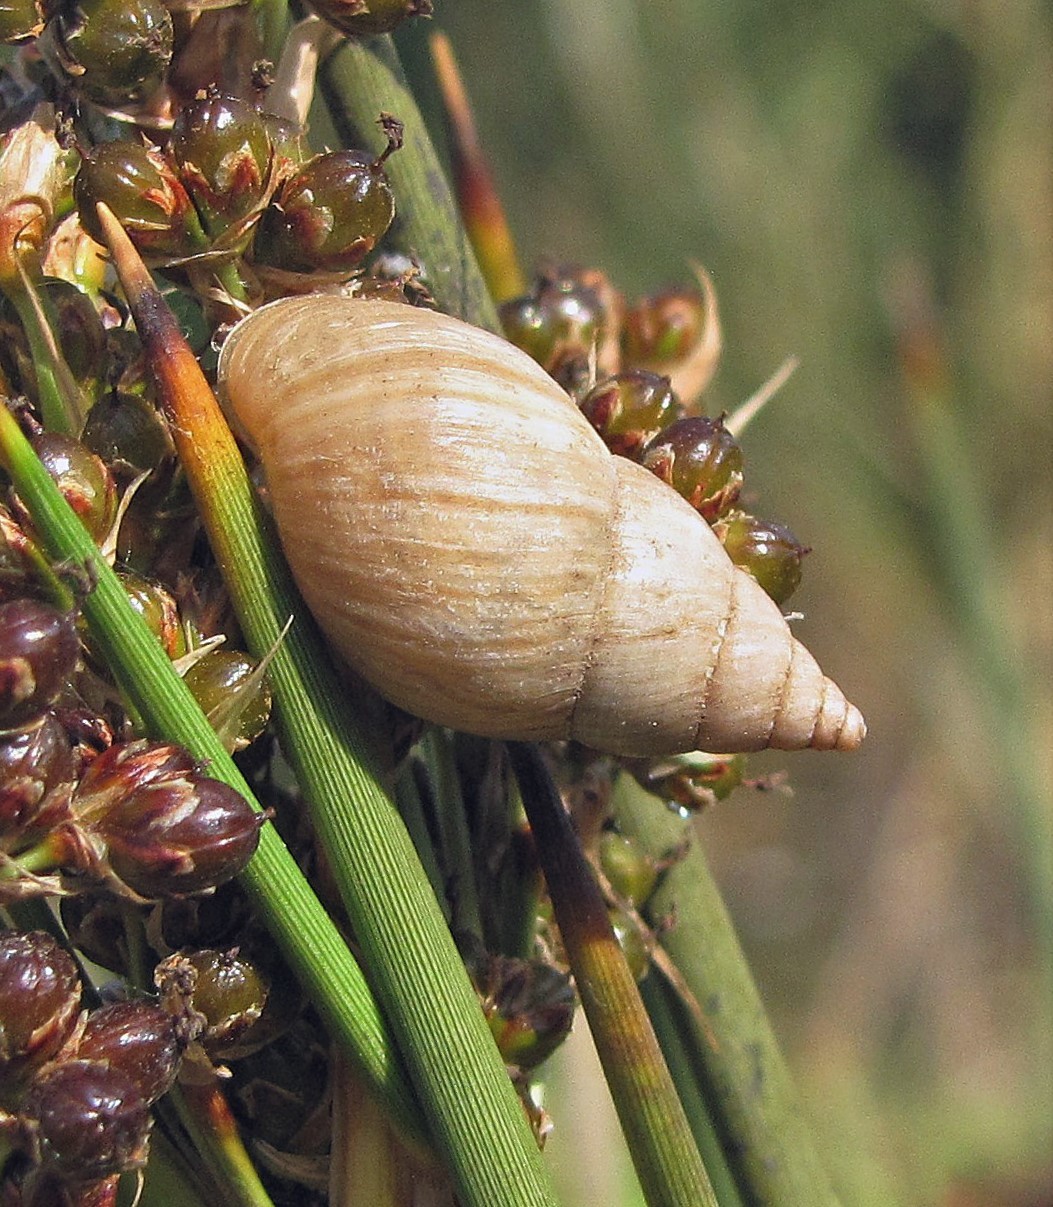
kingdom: Animalia
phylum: Mollusca
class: Gastropoda
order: Stylommatophora
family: Bulimulidae
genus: Bulimulus
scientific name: Bulimulus bonariensis
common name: Snail
